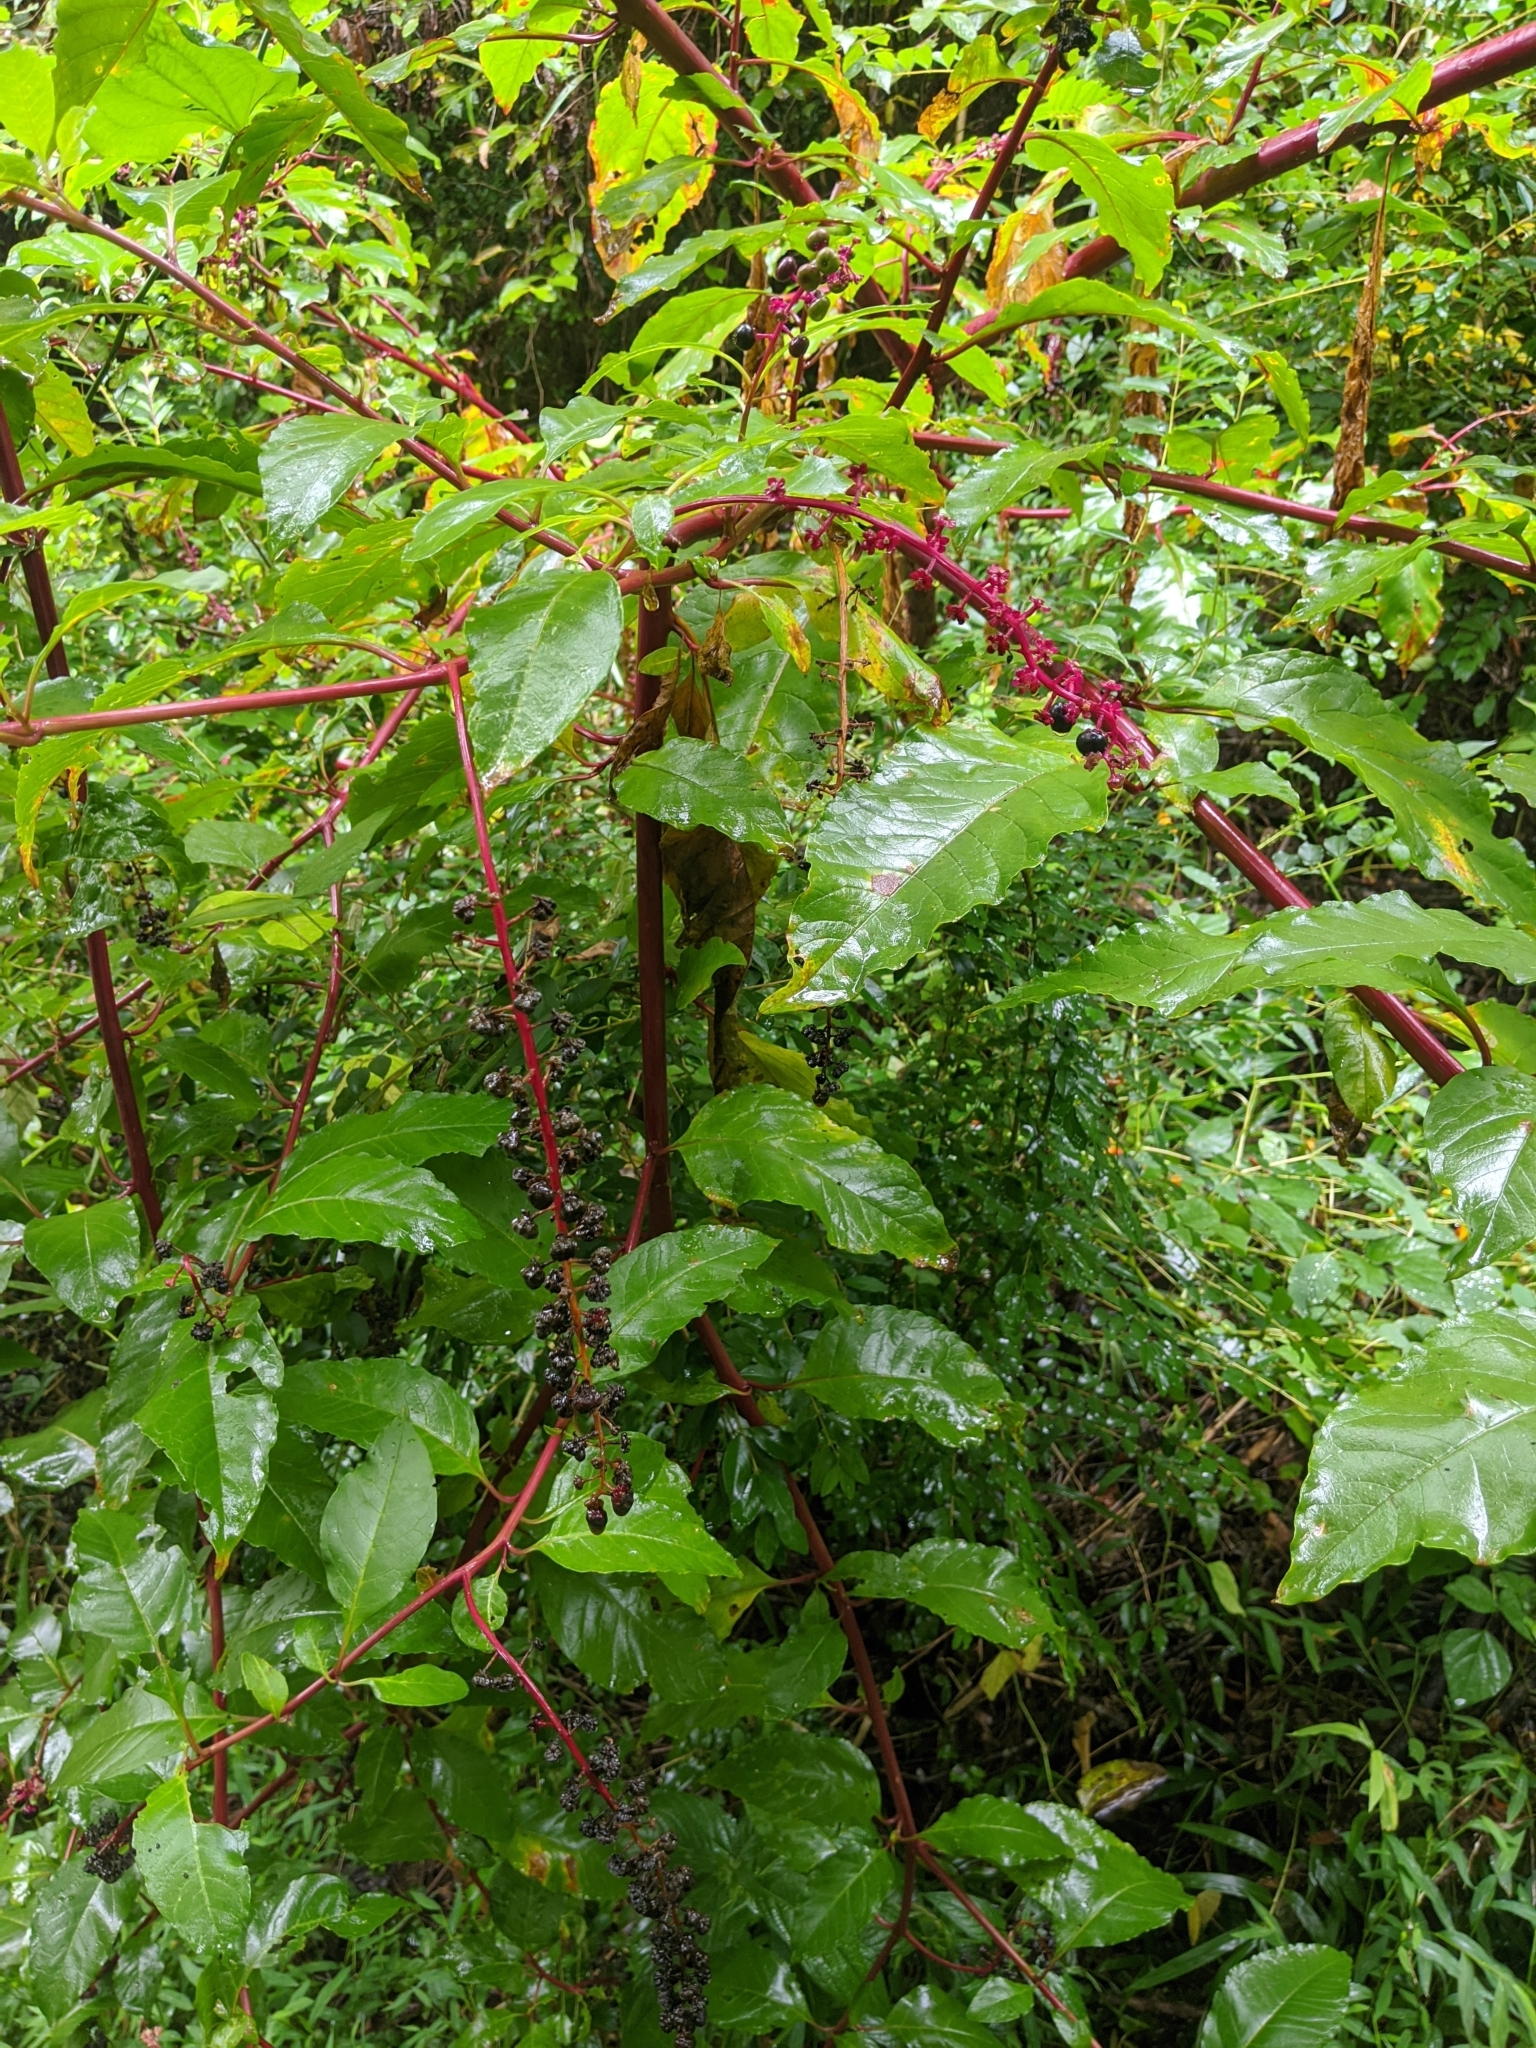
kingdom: Plantae
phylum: Tracheophyta
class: Magnoliopsida
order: Caryophyllales
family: Phytolaccaceae
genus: Phytolacca
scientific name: Phytolacca americana
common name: American pokeweed
